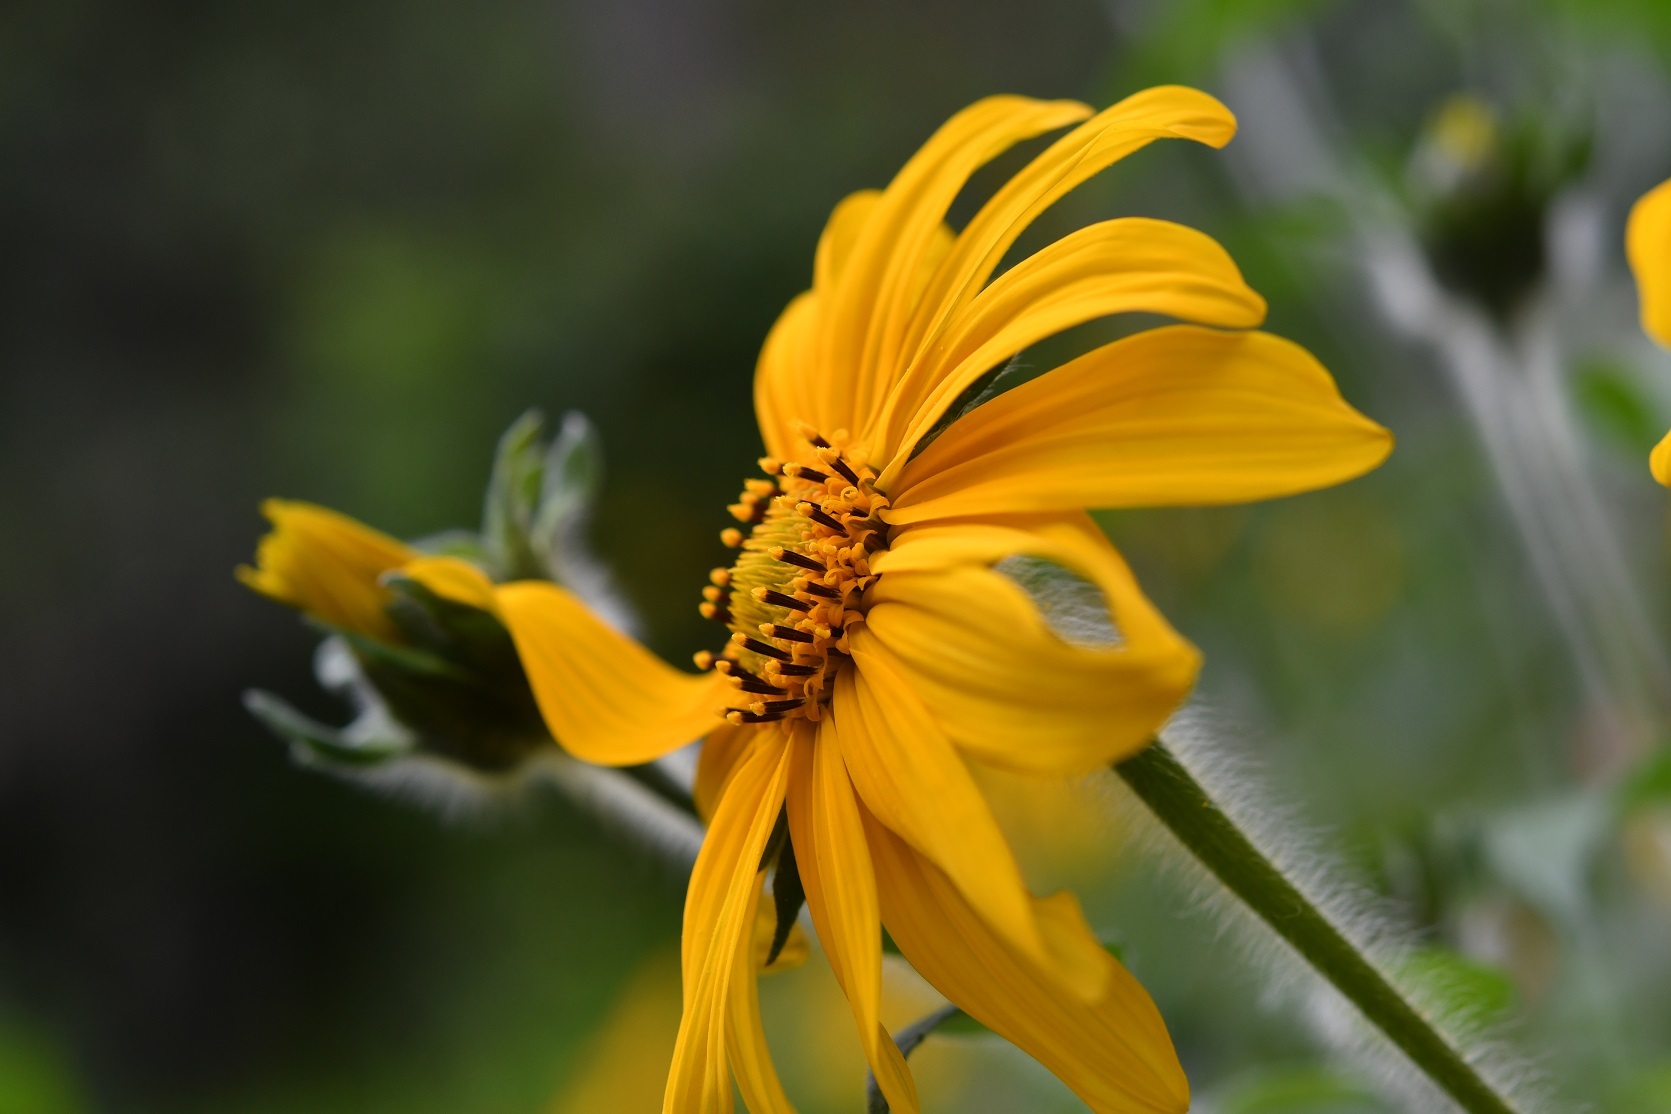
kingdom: Plantae
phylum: Tracheophyta
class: Magnoliopsida
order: Asterales
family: Asteraceae
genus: Tithonia
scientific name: Tithonia tubaeformis
